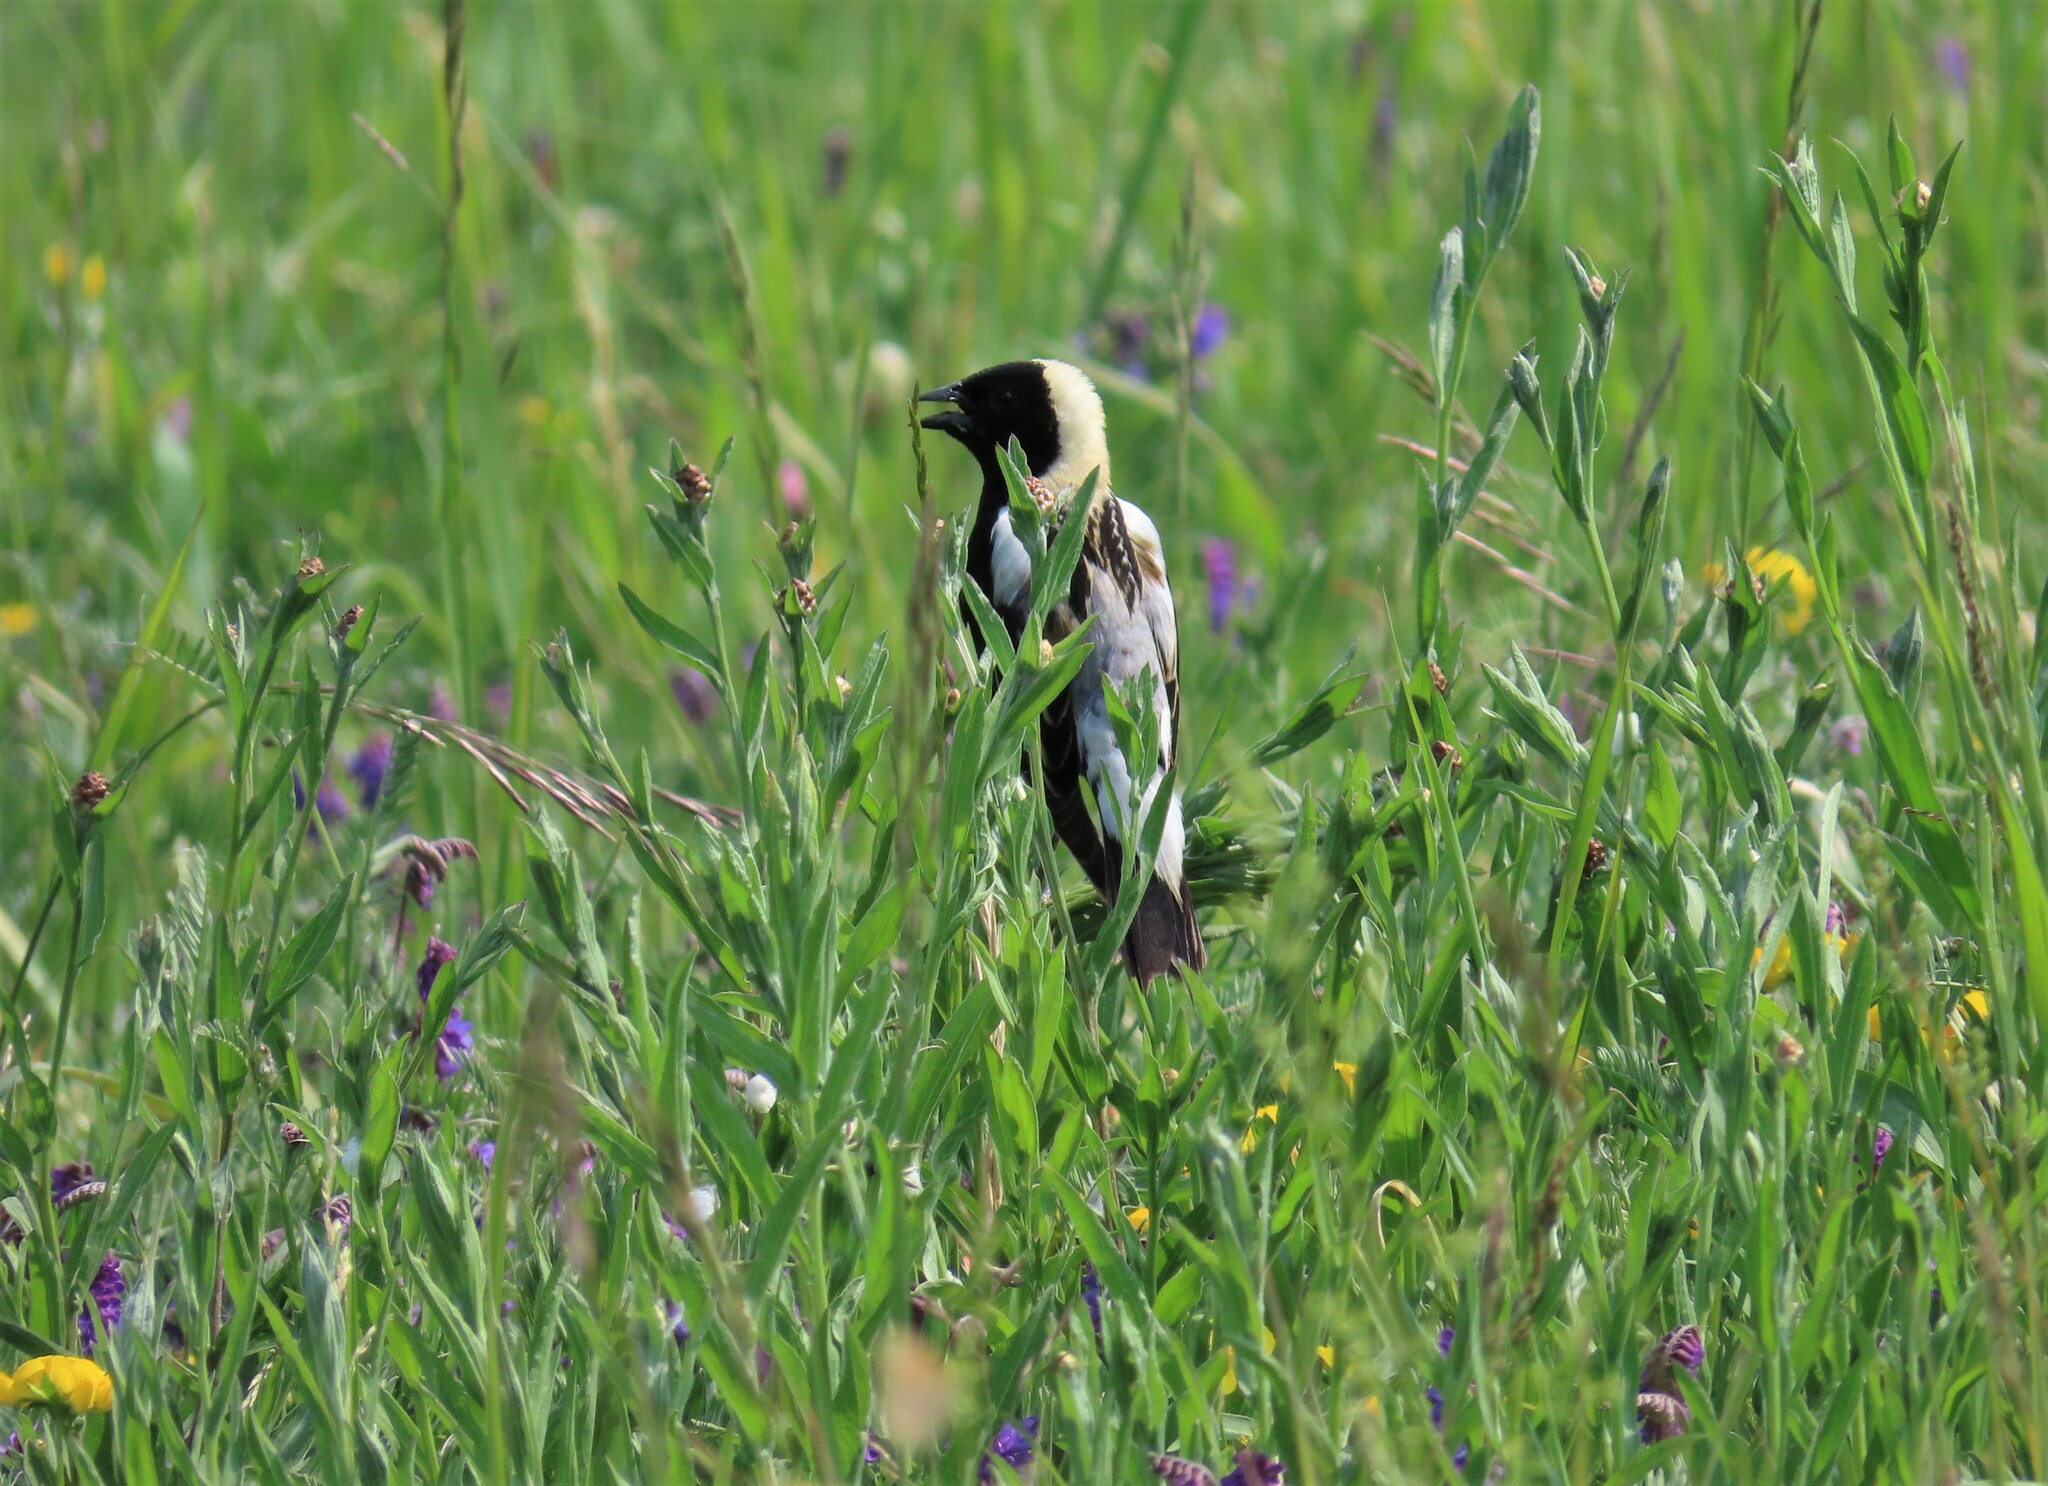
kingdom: Animalia
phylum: Chordata
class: Aves
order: Passeriformes
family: Icteridae
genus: Dolichonyx
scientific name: Dolichonyx oryzivorus
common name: Bobolink
